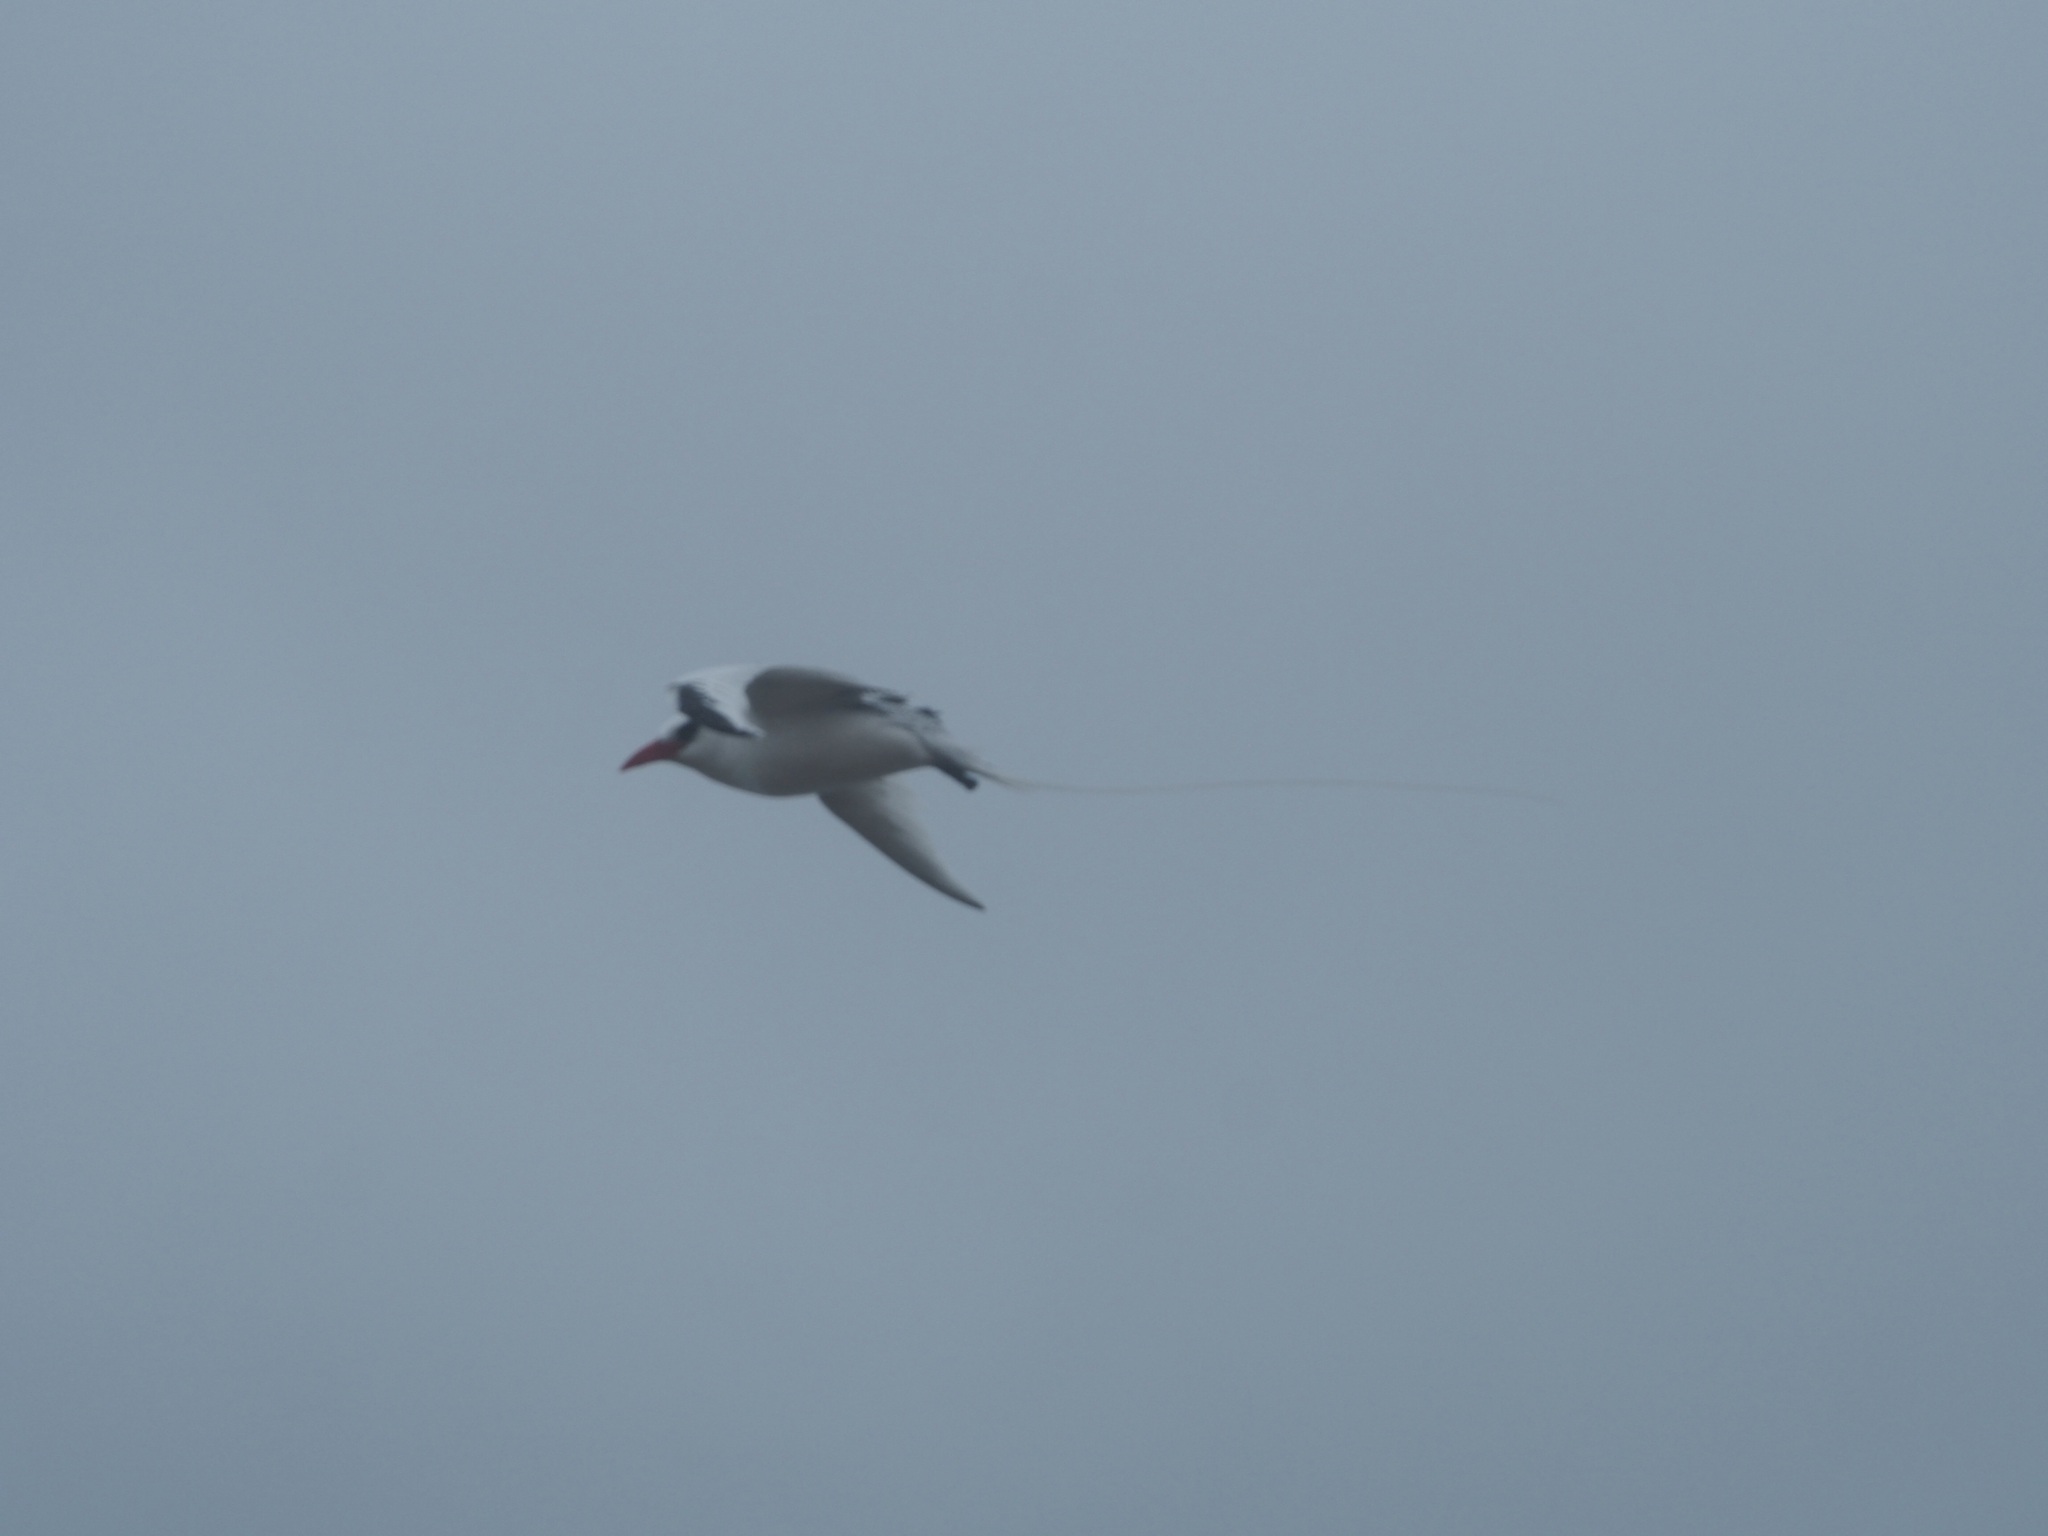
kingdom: Animalia
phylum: Chordata
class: Aves
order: Phaethontiformes
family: Phaethontidae
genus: Phaethon
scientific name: Phaethon aethereus
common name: Red-billed tropicbird
